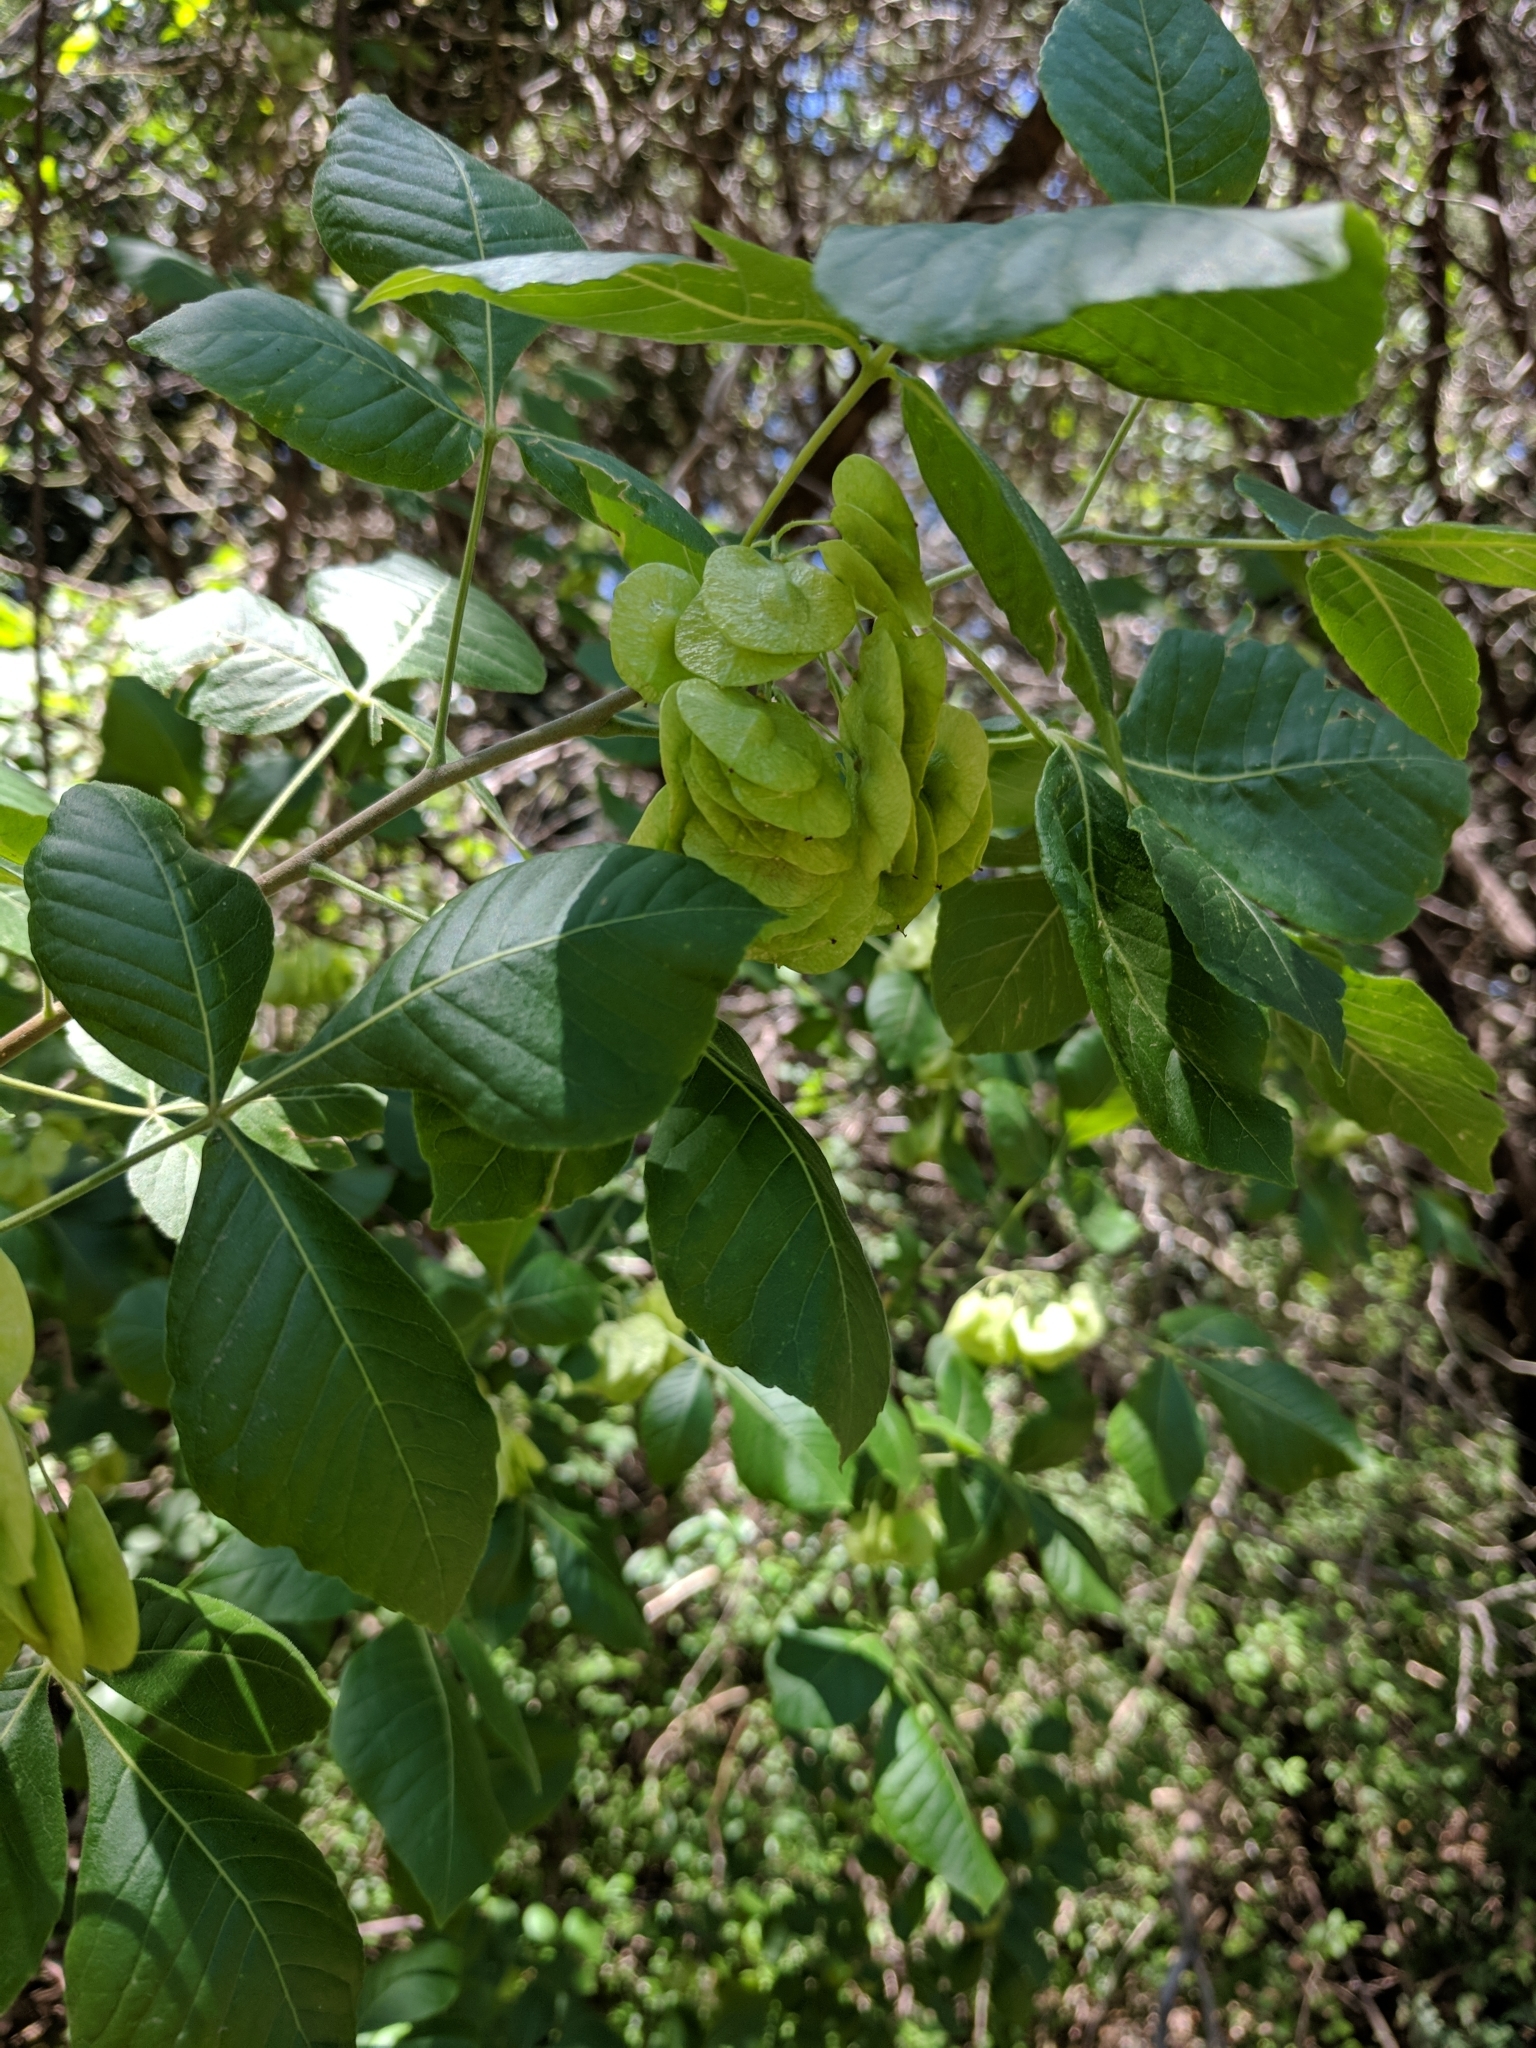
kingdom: Plantae
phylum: Tracheophyta
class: Magnoliopsida
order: Sapindales
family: Rutaceae
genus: Ptelea
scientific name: Ptelea trifoliata
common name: Common hop-tree
